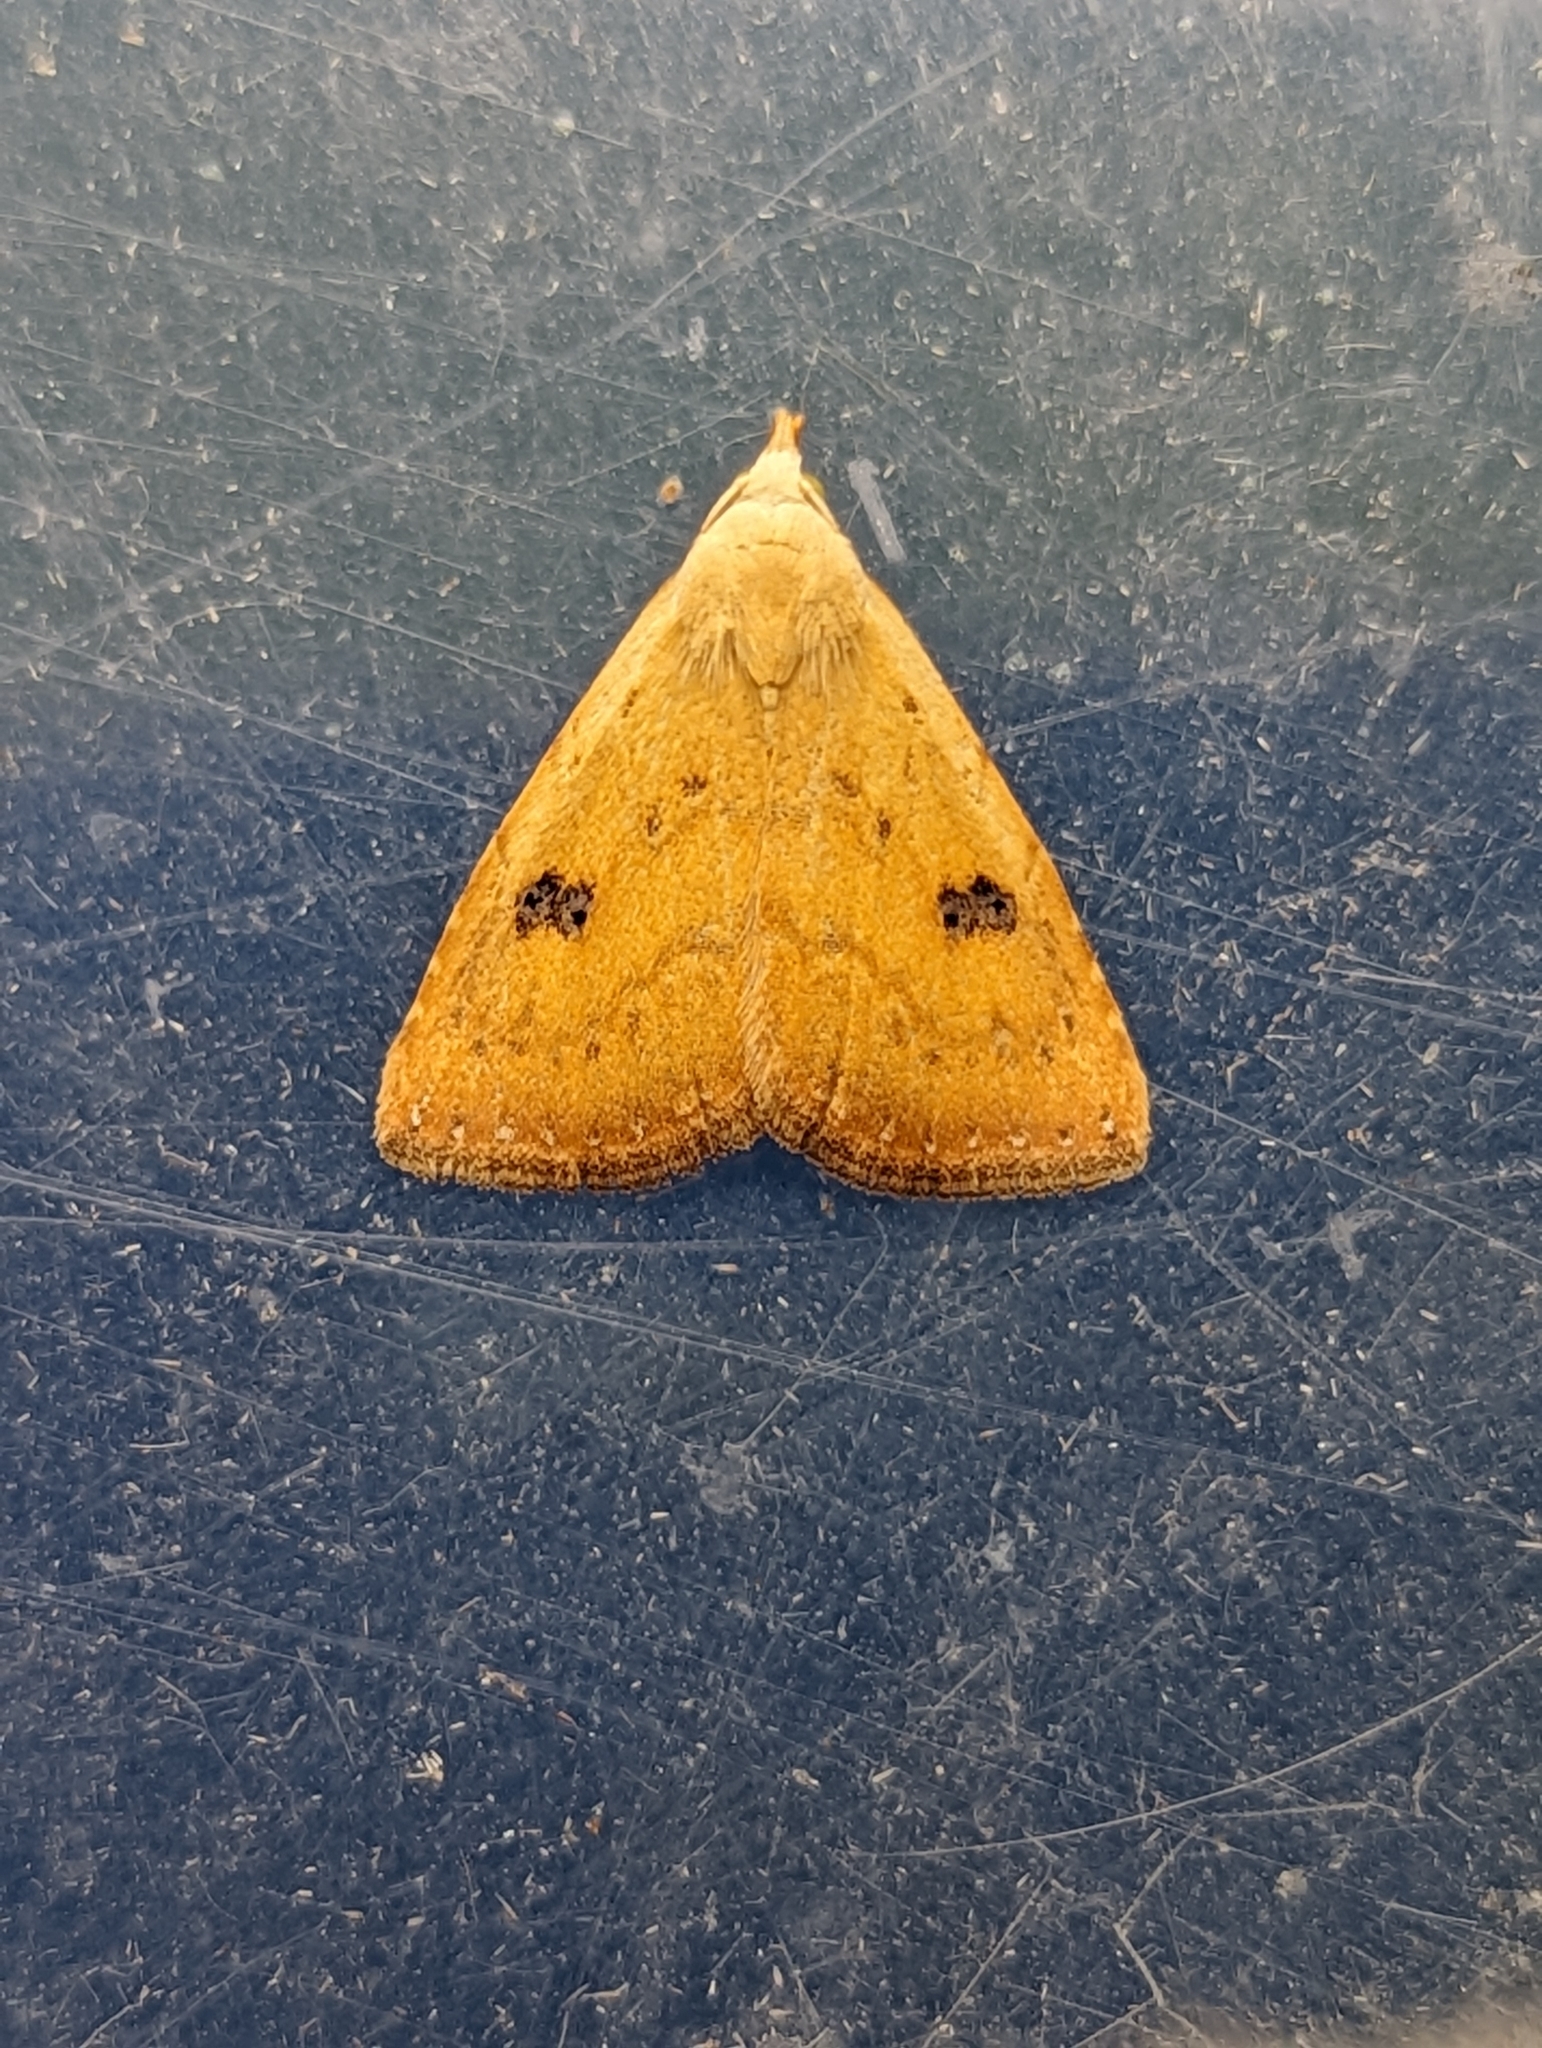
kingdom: Animalia
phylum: Arthropoda
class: Insecta
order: Lepidoptera
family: Erebidae
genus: Rivula
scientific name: Rivula sericealis
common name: Straw dot
